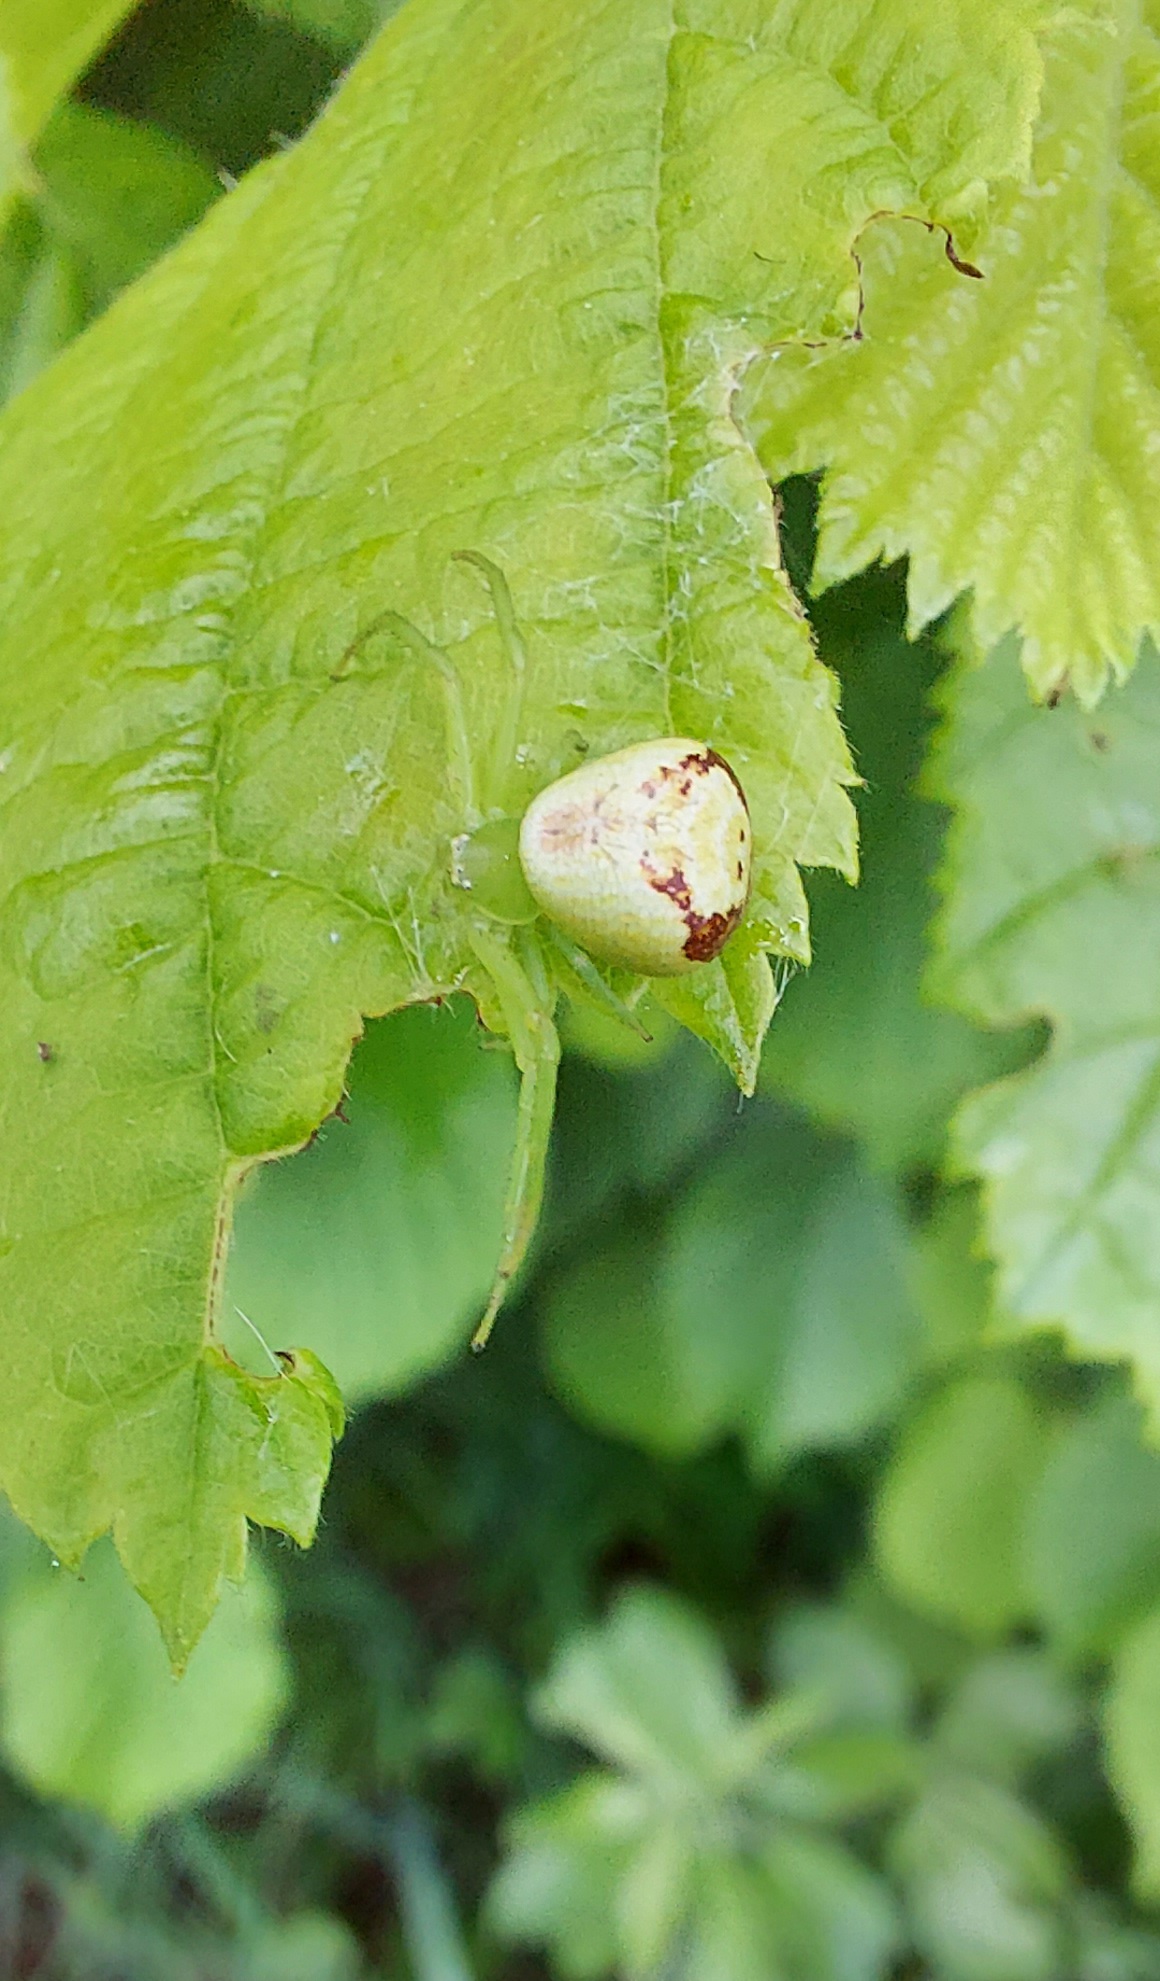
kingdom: Animalia
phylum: Arthropoda
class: Arachnida
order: Araneae
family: Thomisidae
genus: Ebrechtella
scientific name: Ebrechtella tricuspidata
